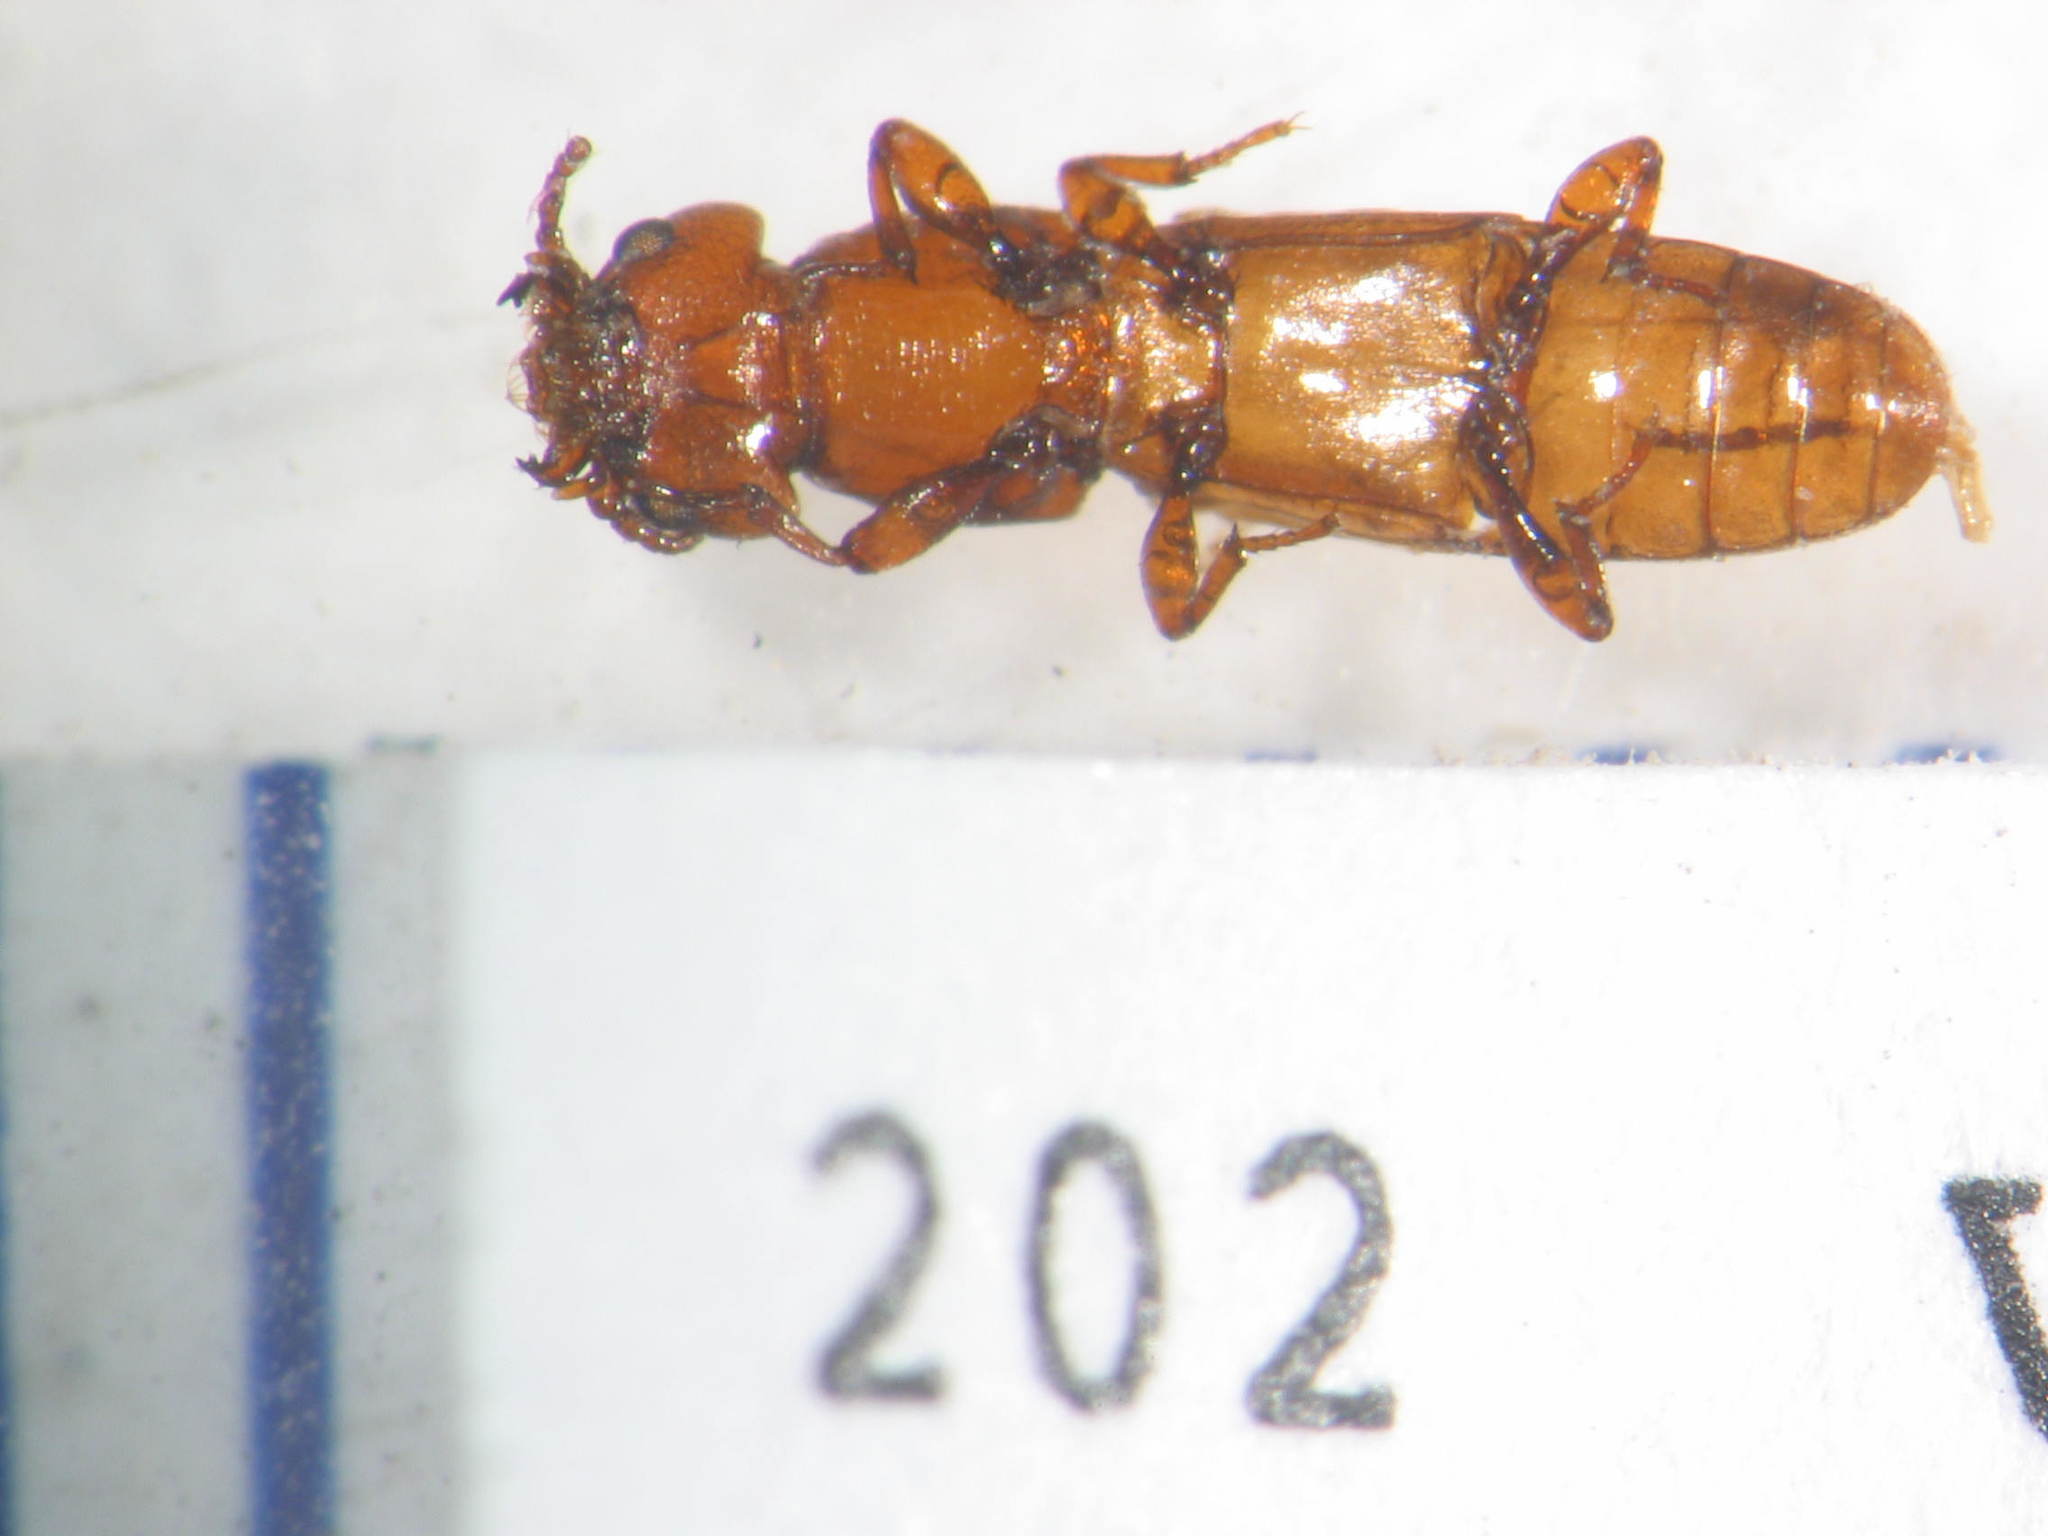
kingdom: Animalia
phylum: Arthropoda
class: Insecta
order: Coleoptera
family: Prostomidae
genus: Dryocora
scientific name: Dryocora
